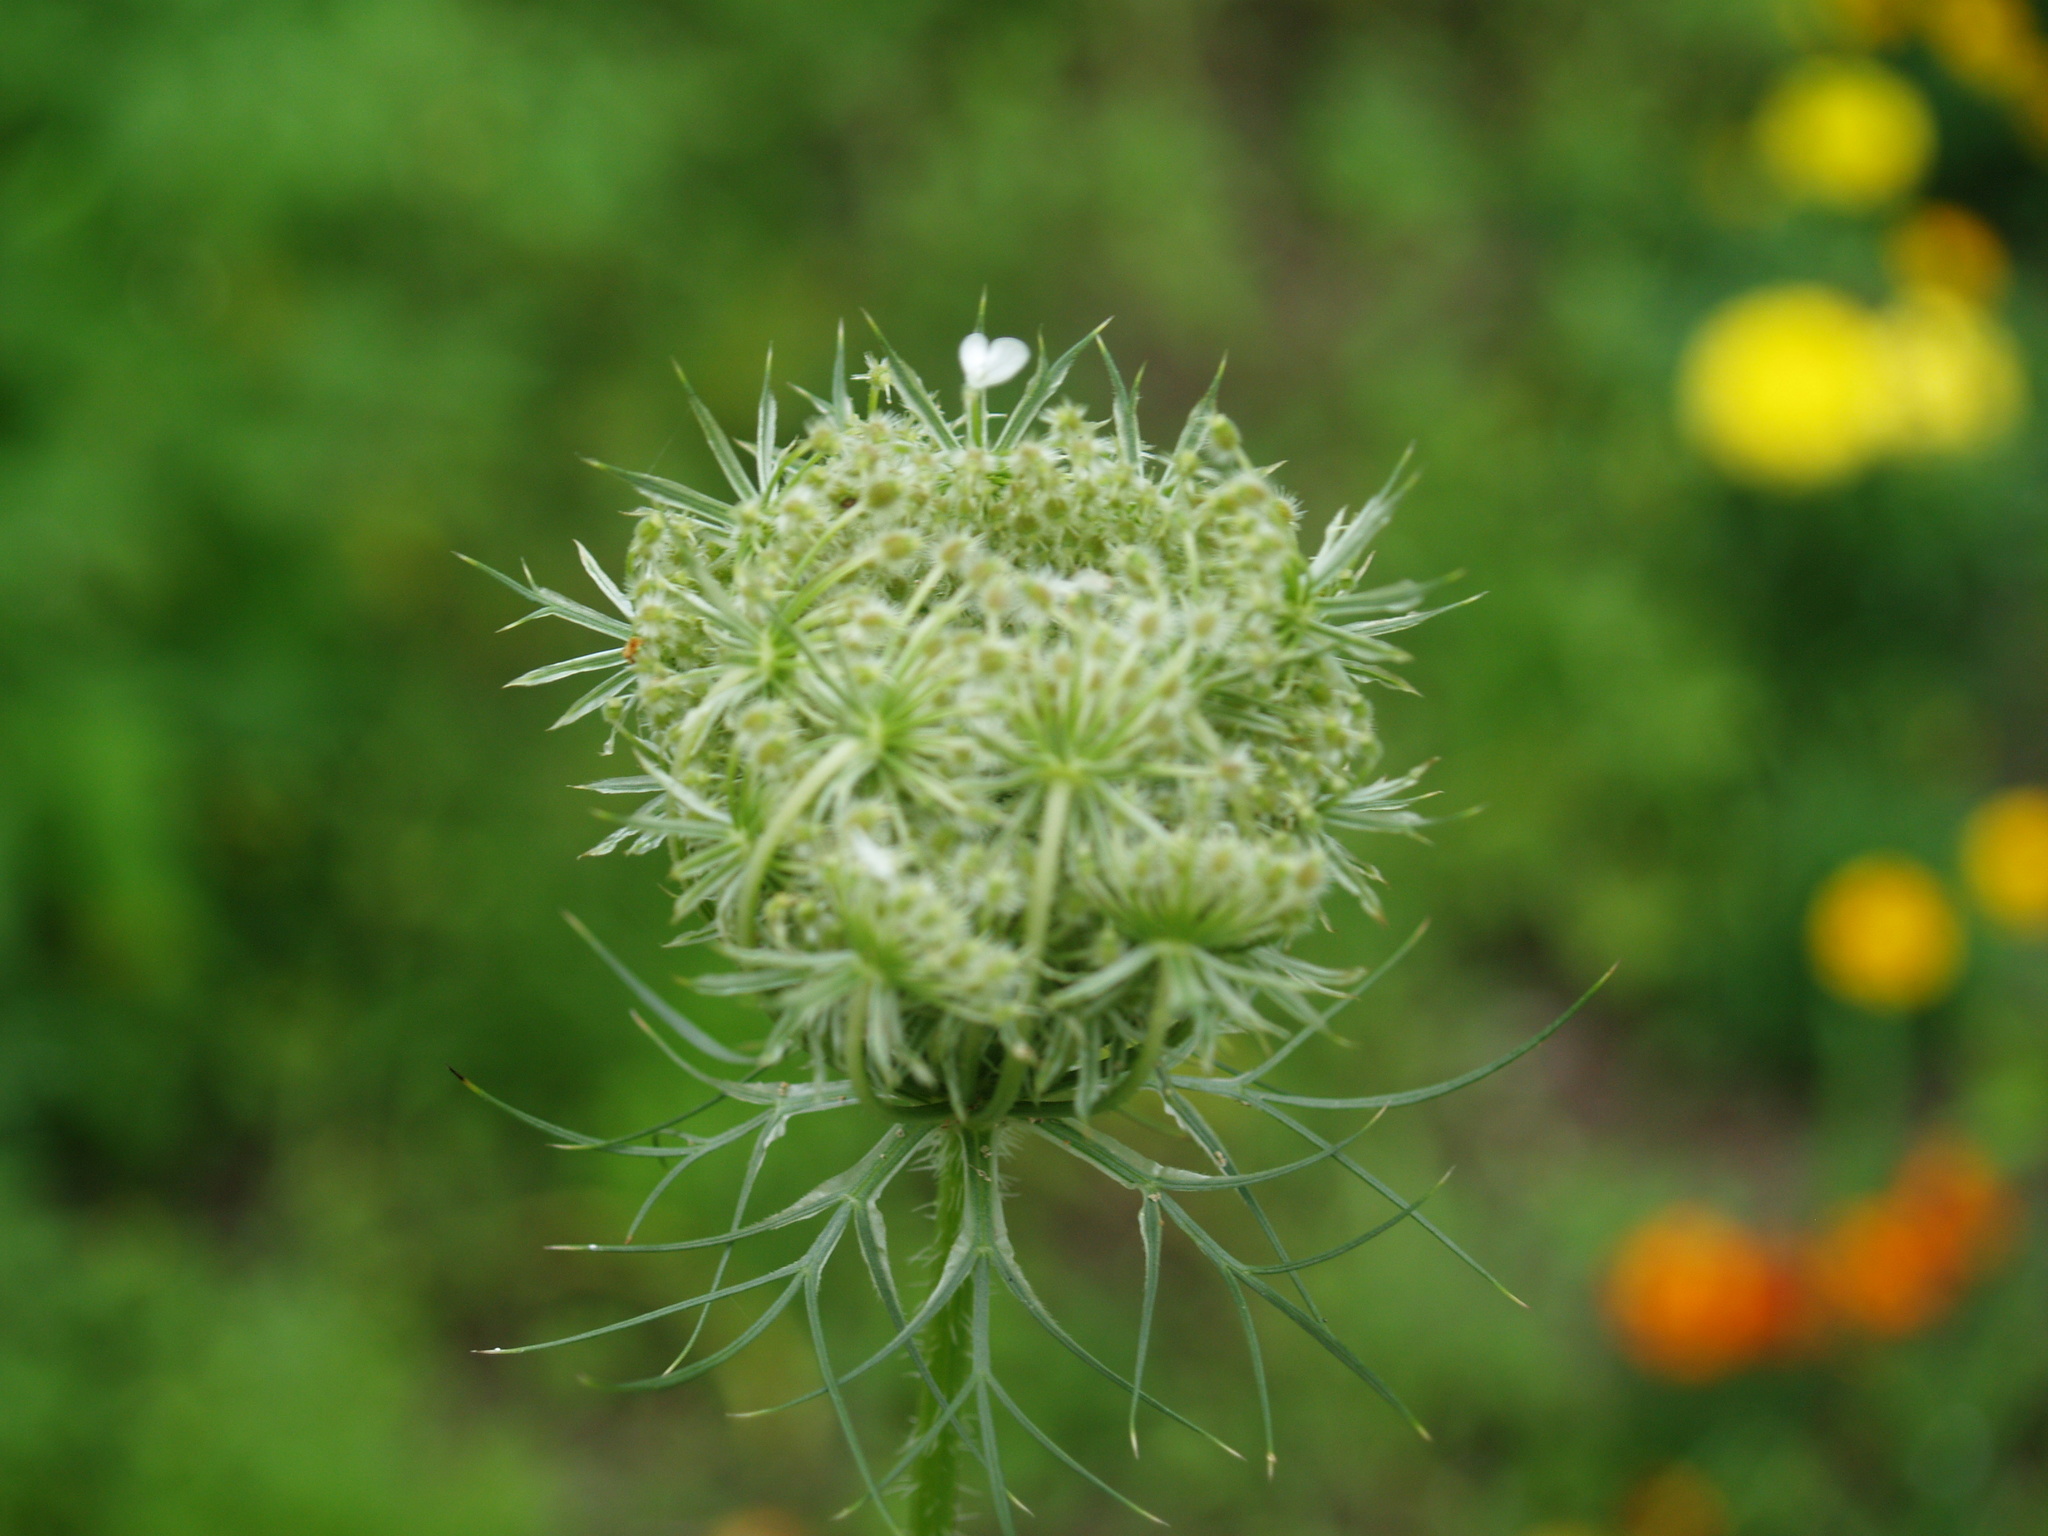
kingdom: Plantae
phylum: Tracheophyta
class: Magnoliopsida
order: Apiales
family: Apiaceae
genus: Daucus
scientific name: Daucus carota
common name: Wild carrot
